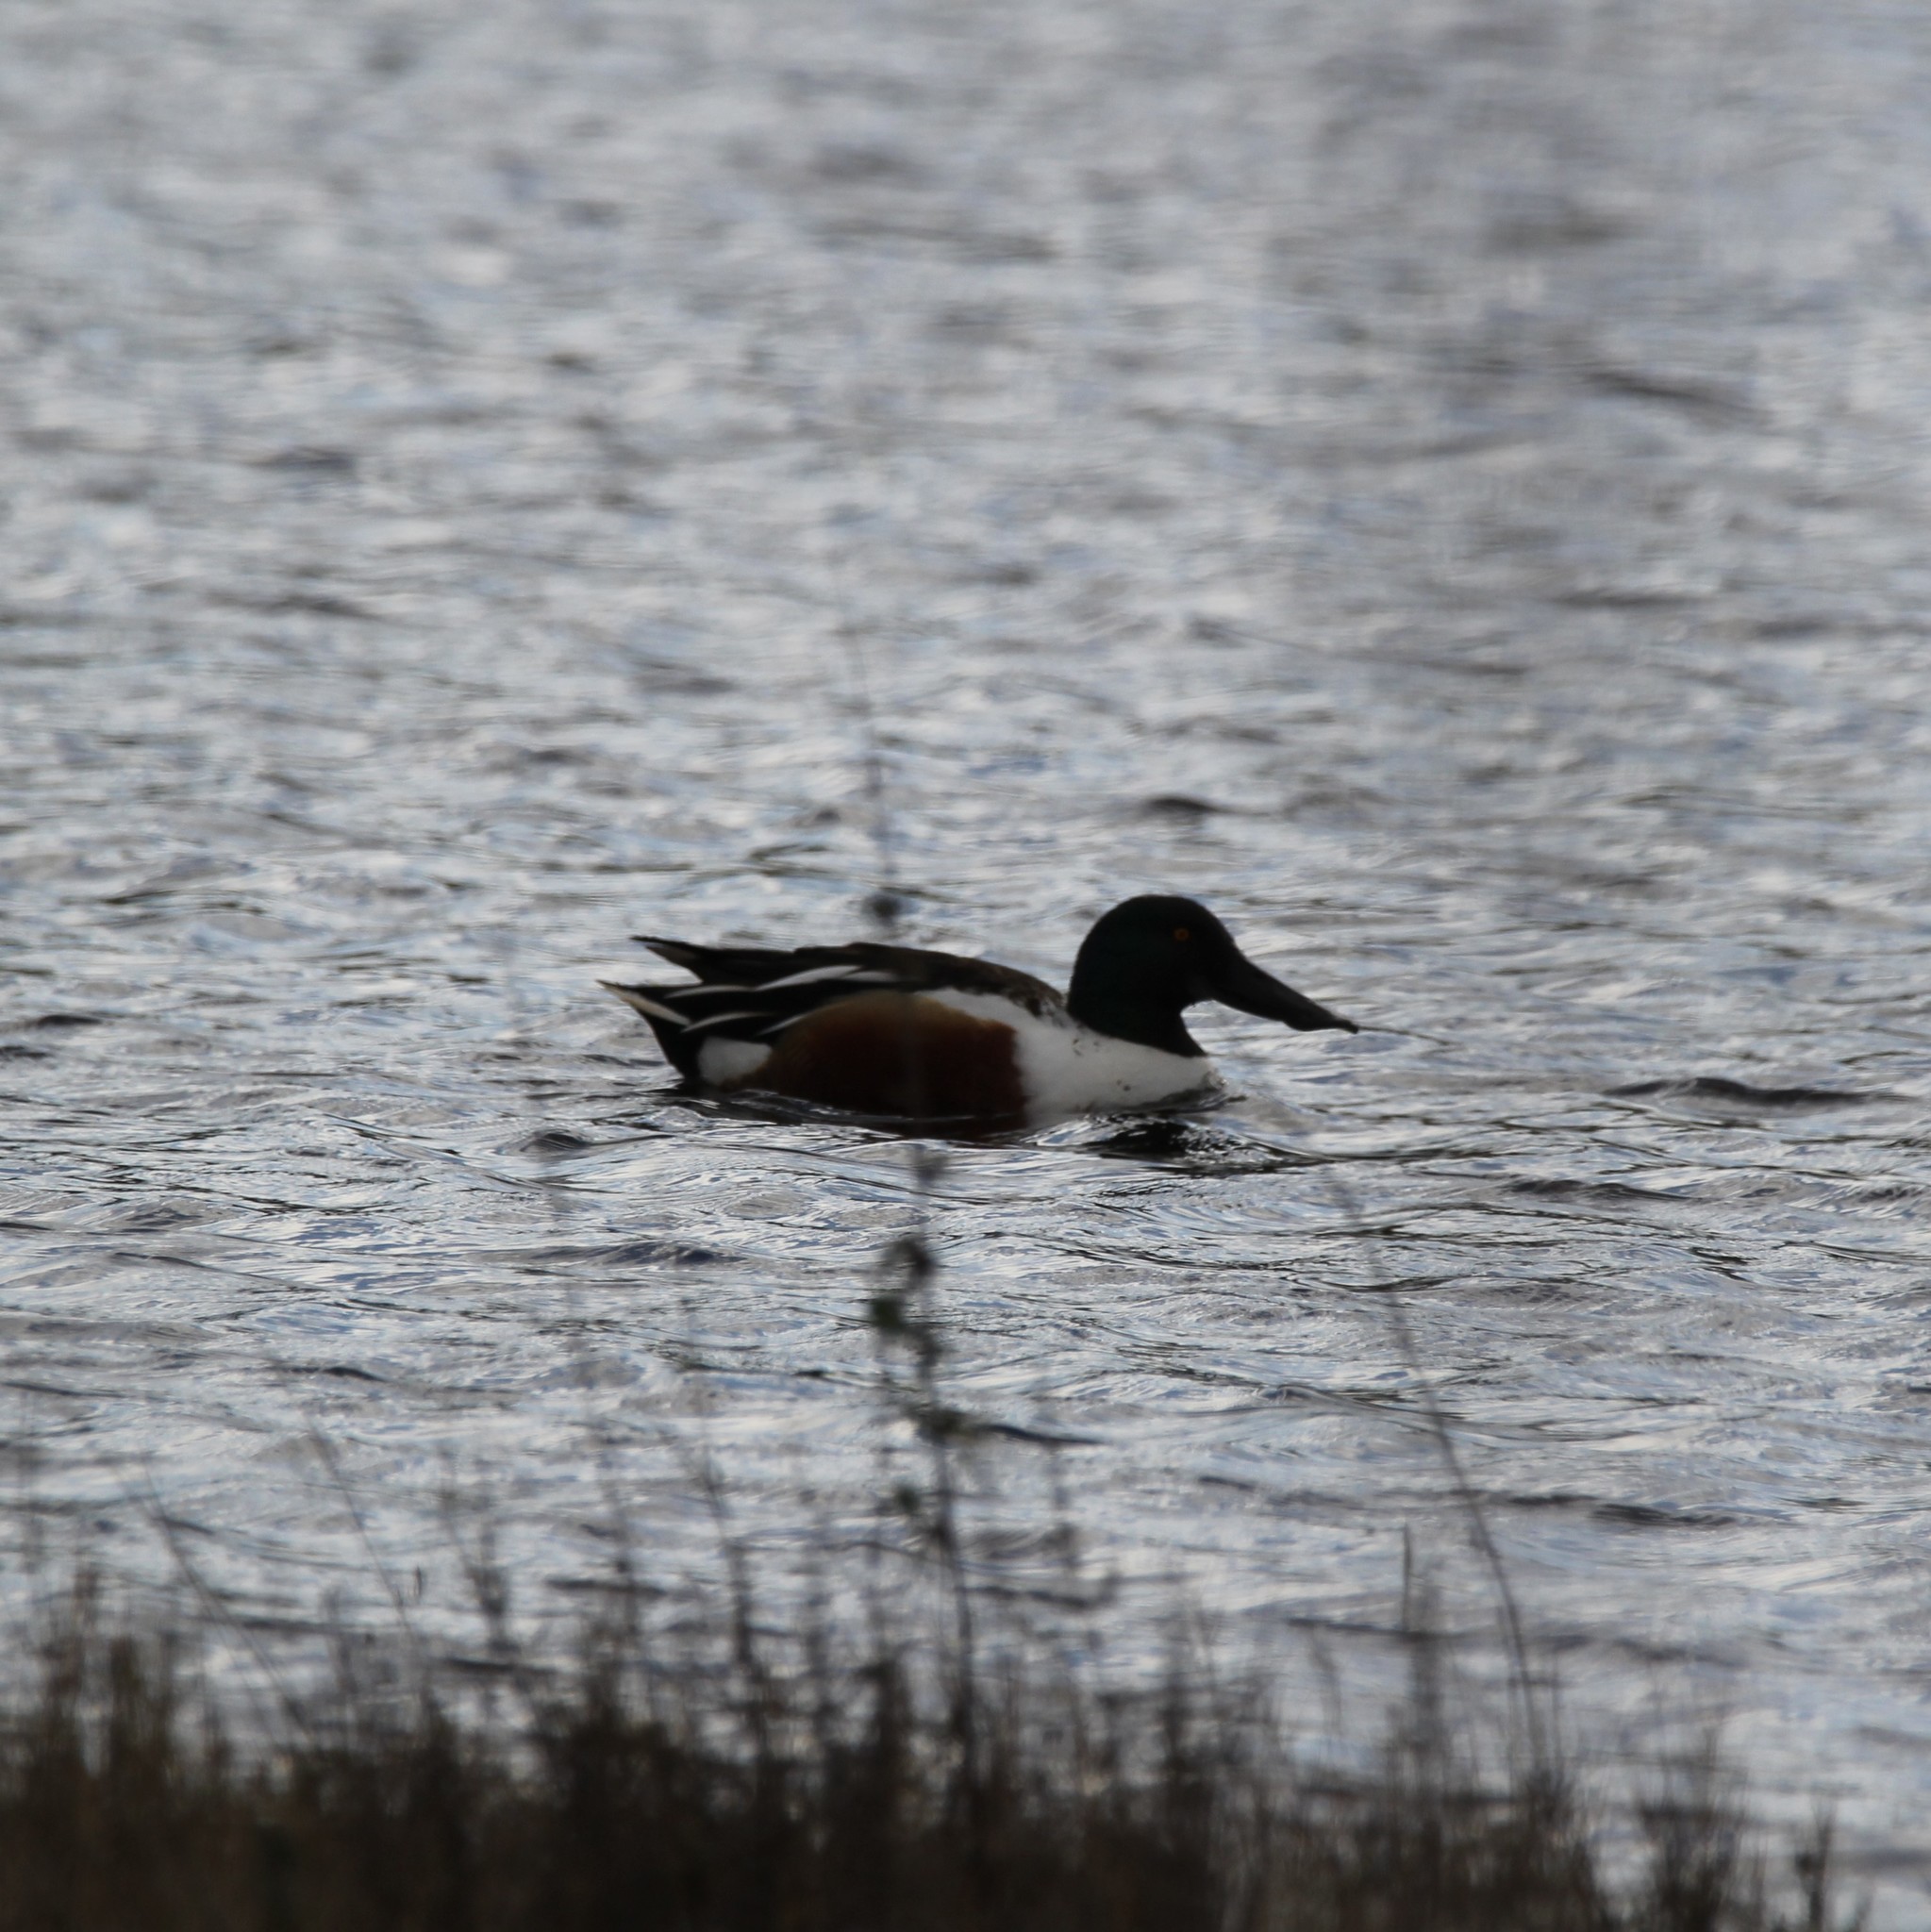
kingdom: Animalia
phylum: Chordata
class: Aves
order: Anseriformes
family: Anatidae
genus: Spatula
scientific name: Spatula clypeata
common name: Northern shoveler
